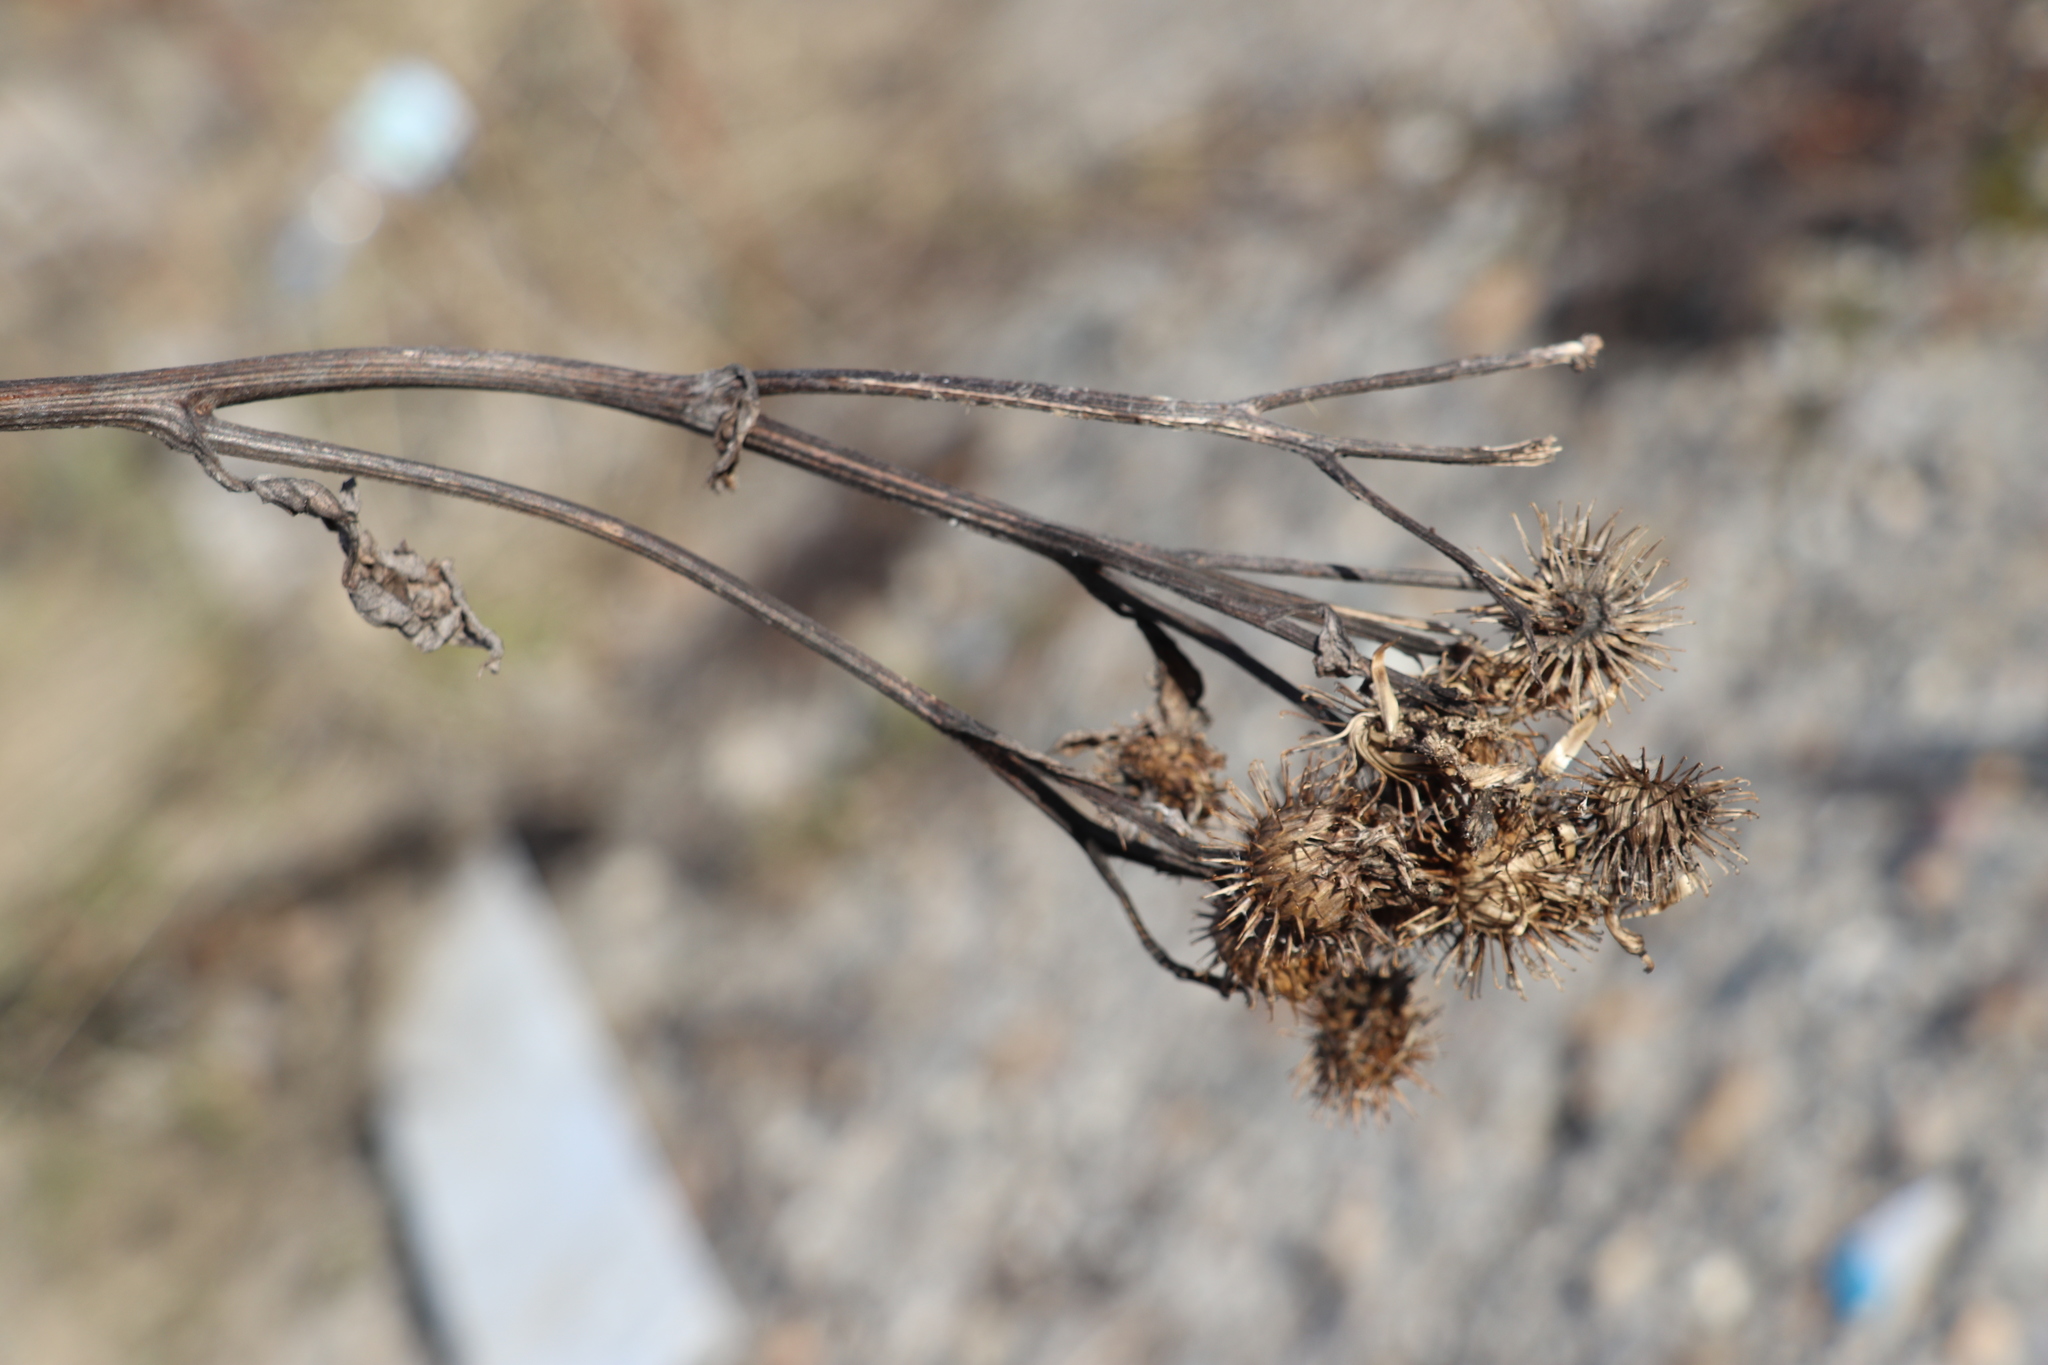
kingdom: Plantae
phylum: Tracheophyta
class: Magnoliopsida
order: Asterales
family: Asteraceae
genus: Arctium
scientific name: Arctium tomentosum
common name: Woolly burdock
